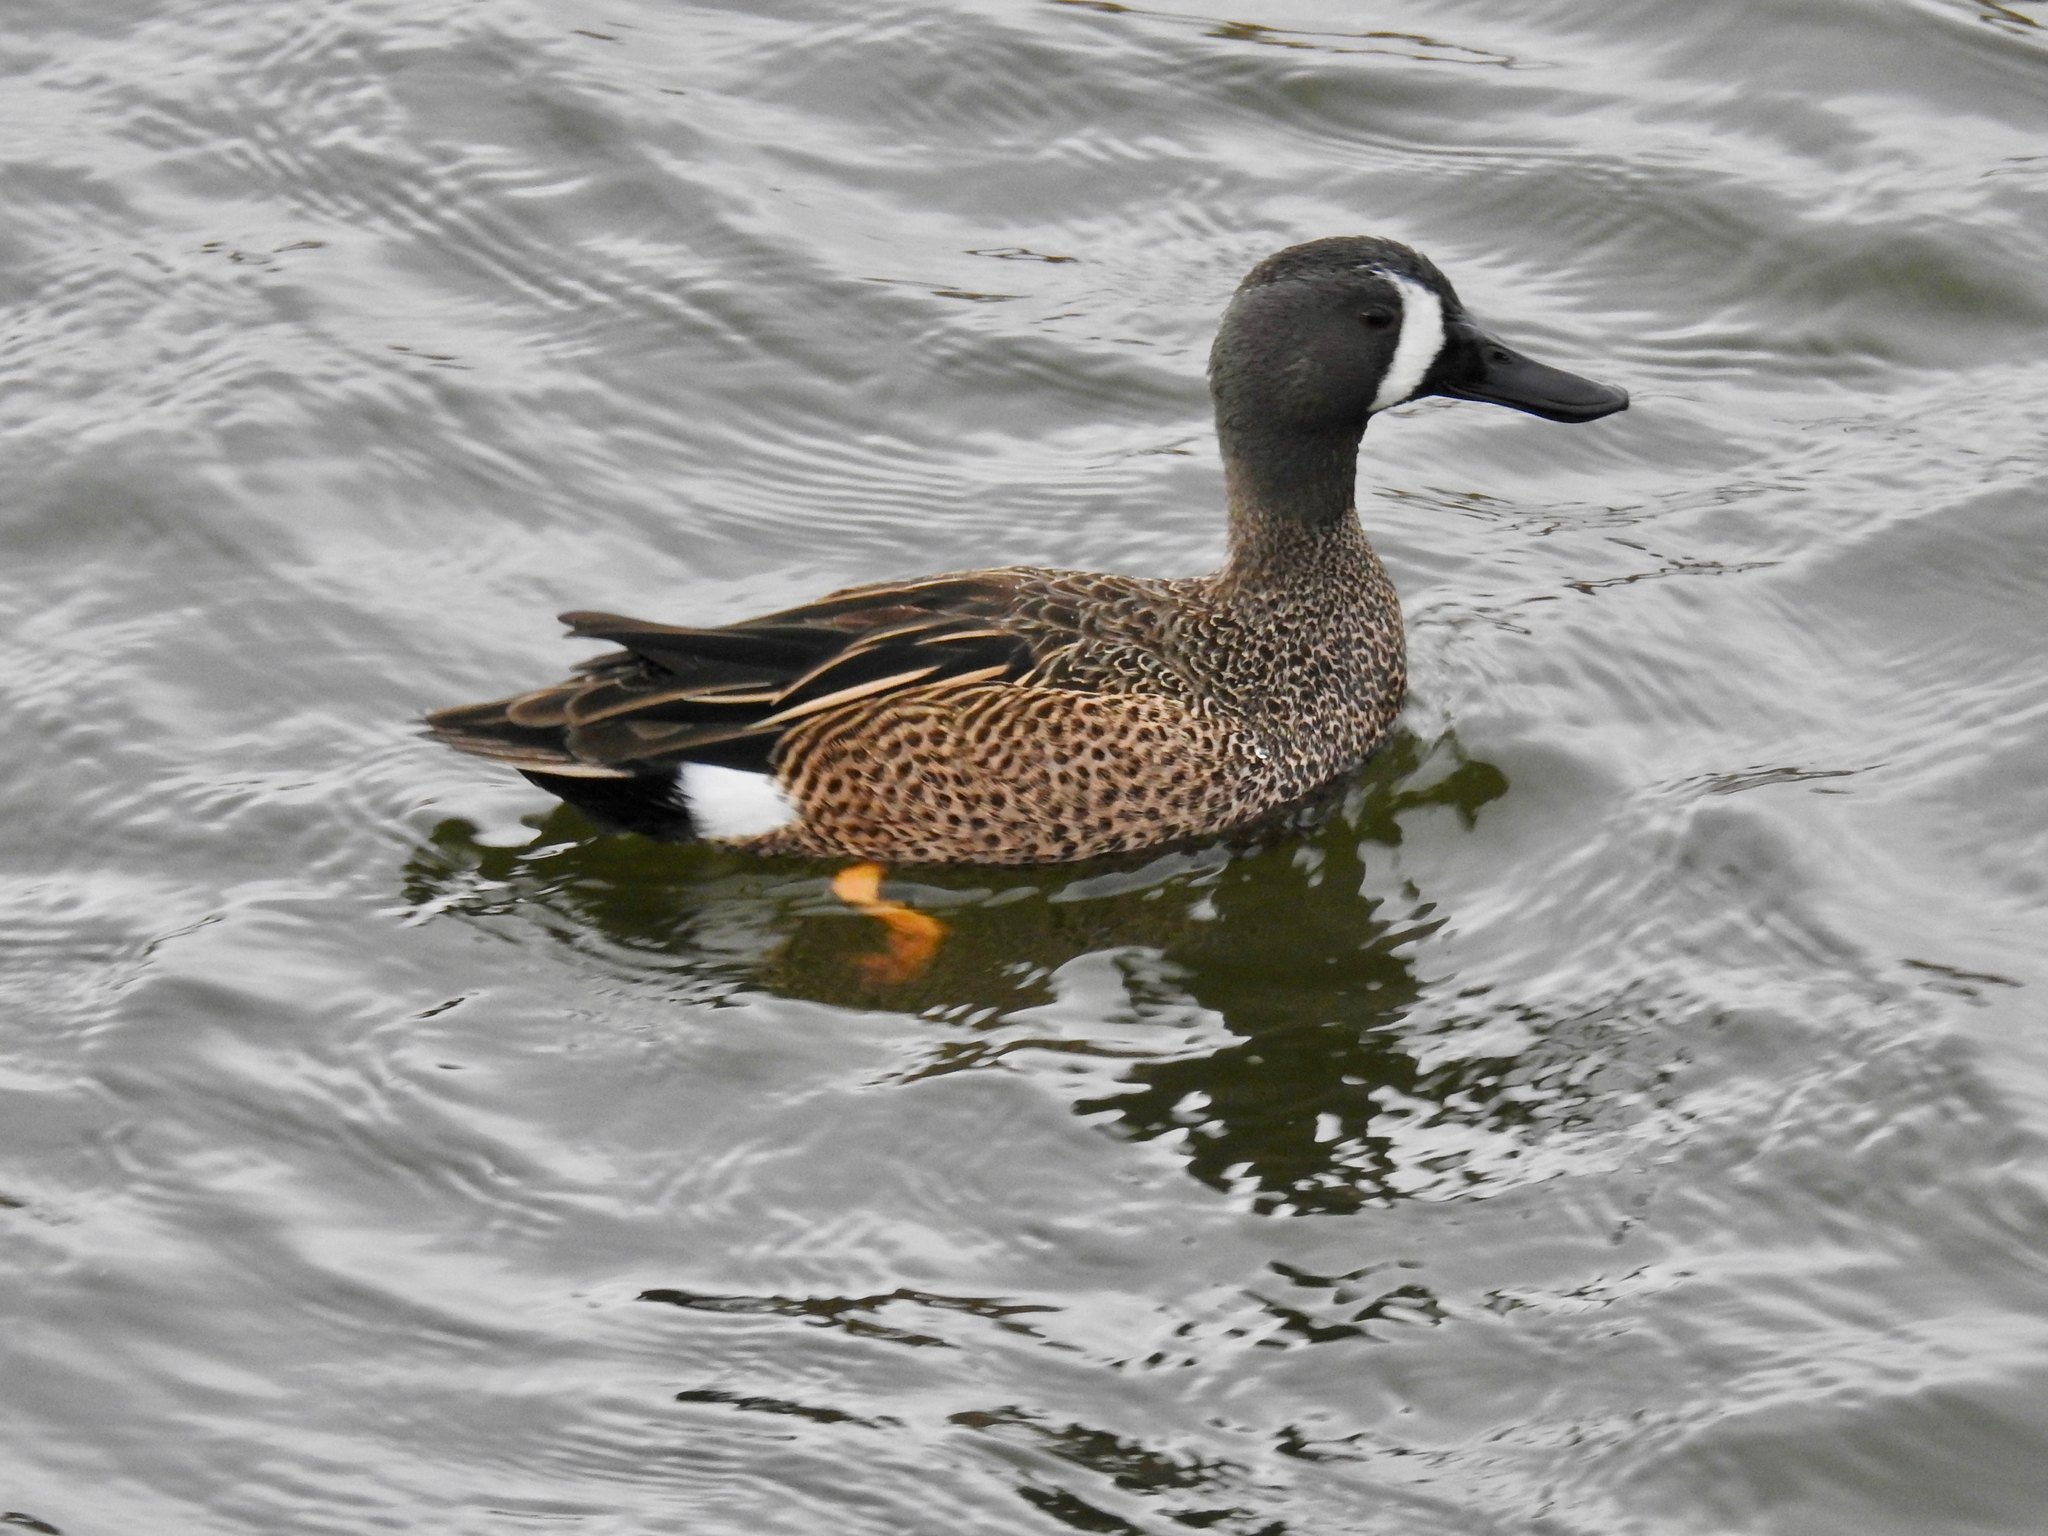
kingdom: Animalia
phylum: Chordata
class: Aves
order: Anseriformes
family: Anatidae
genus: Spatula
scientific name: Spatula discors
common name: Blue-winged teal
